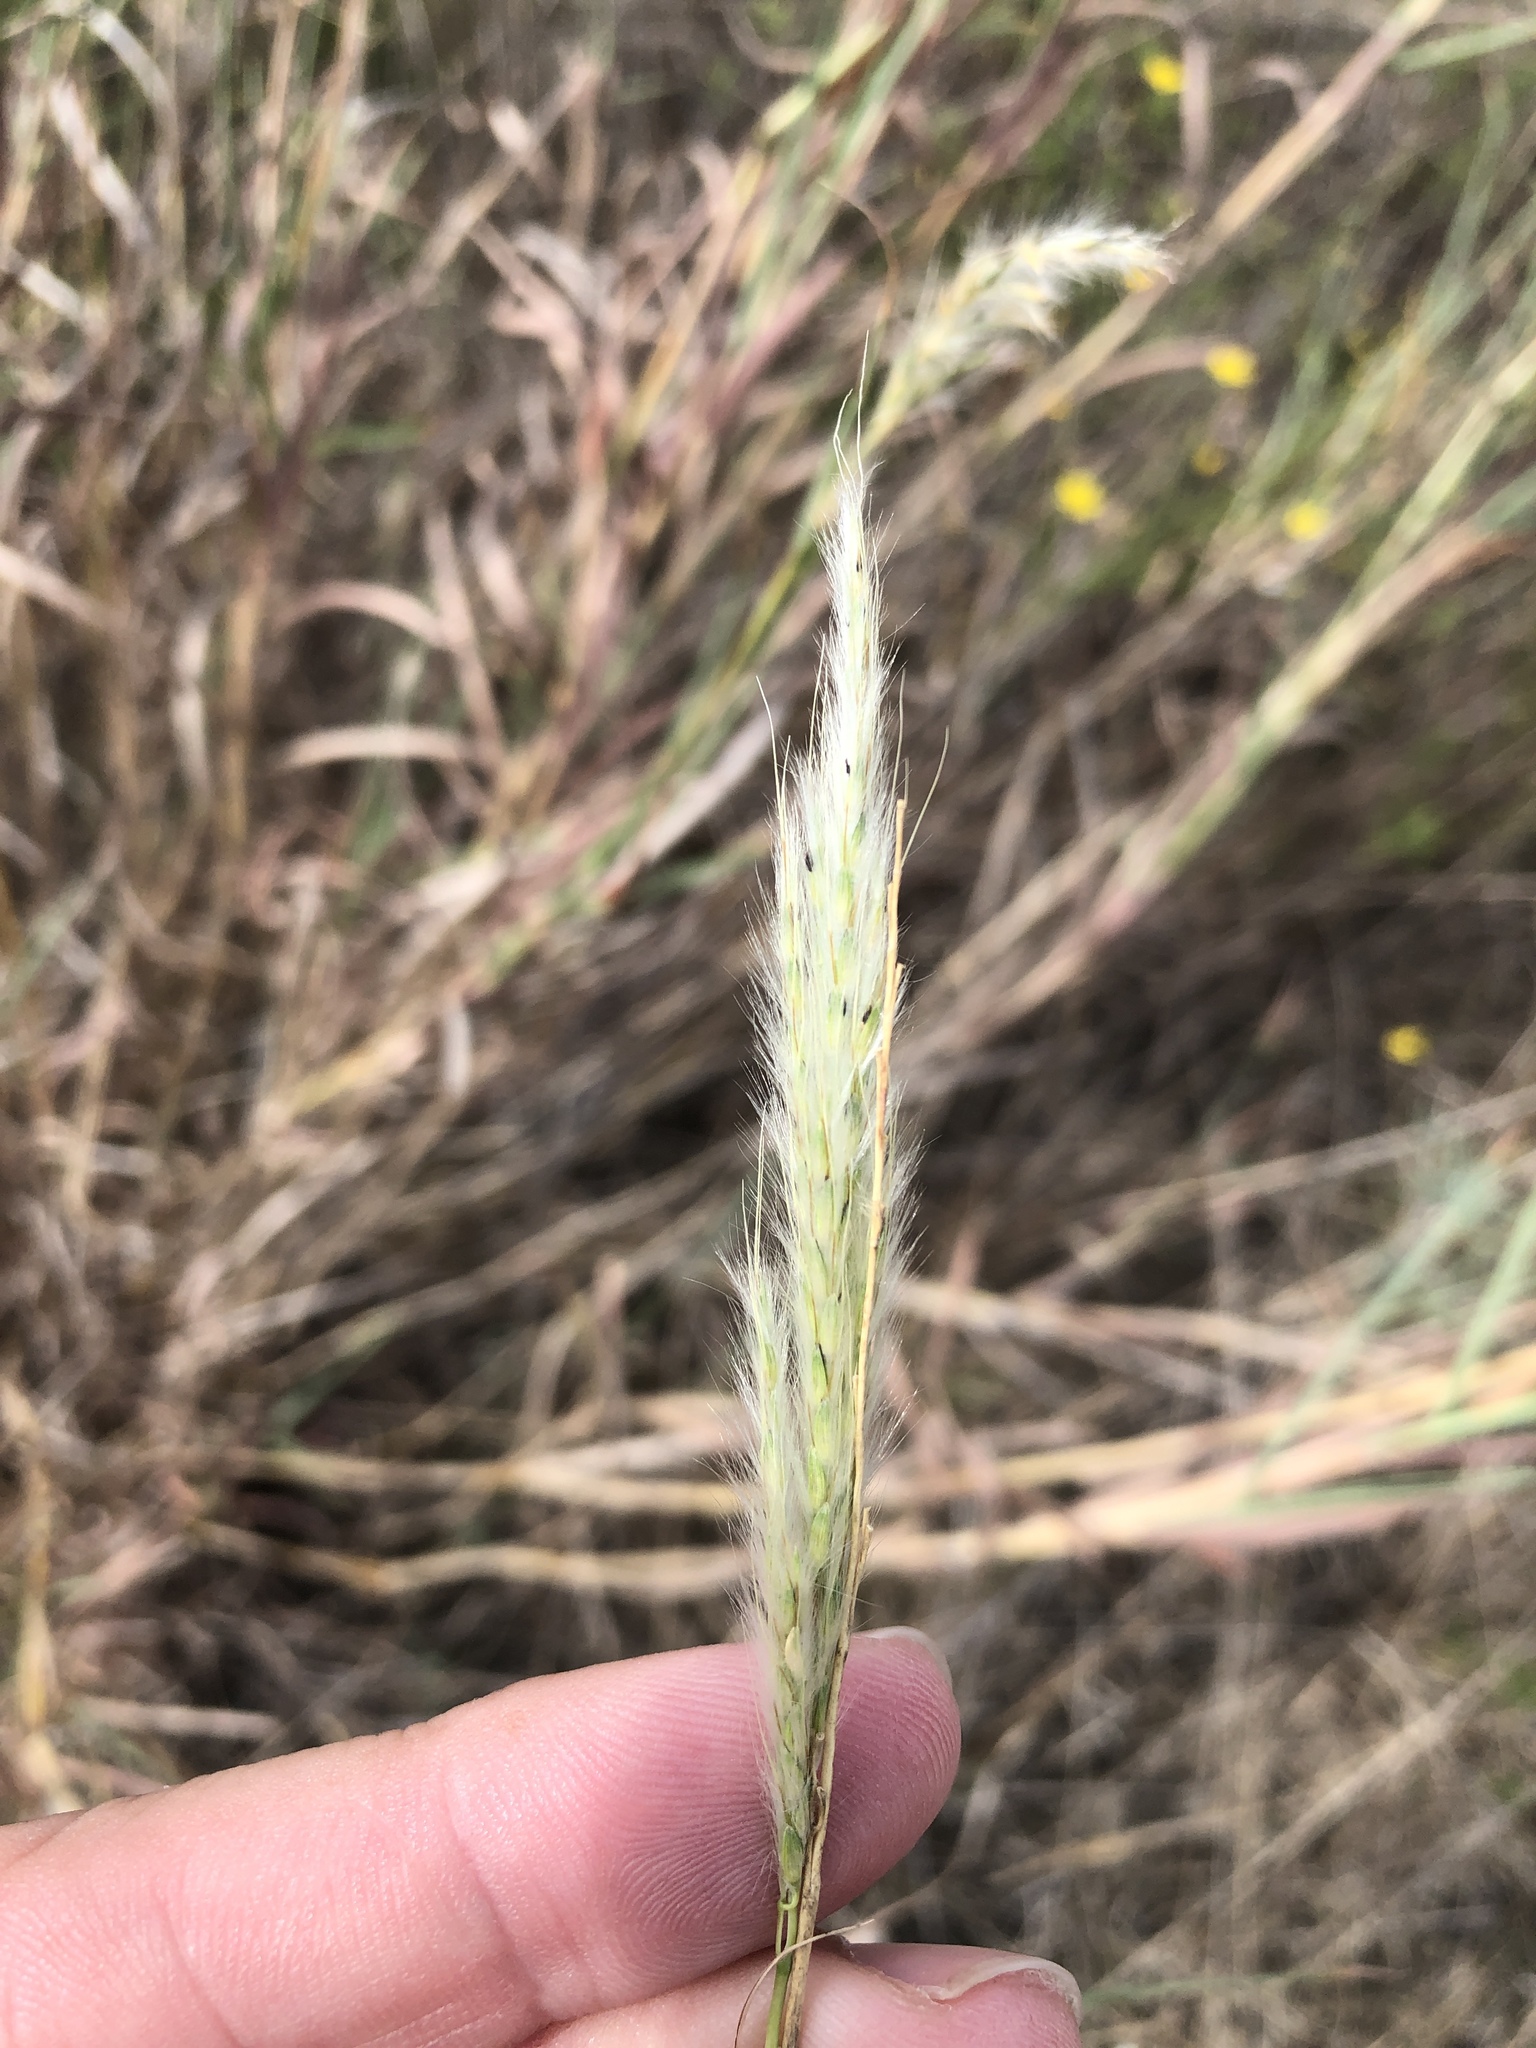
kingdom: Plantae
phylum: Tracheophyta
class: Liliopsida
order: Poales
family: Poaceae
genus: Bothriochloa
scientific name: Bothriochloa torreyana
